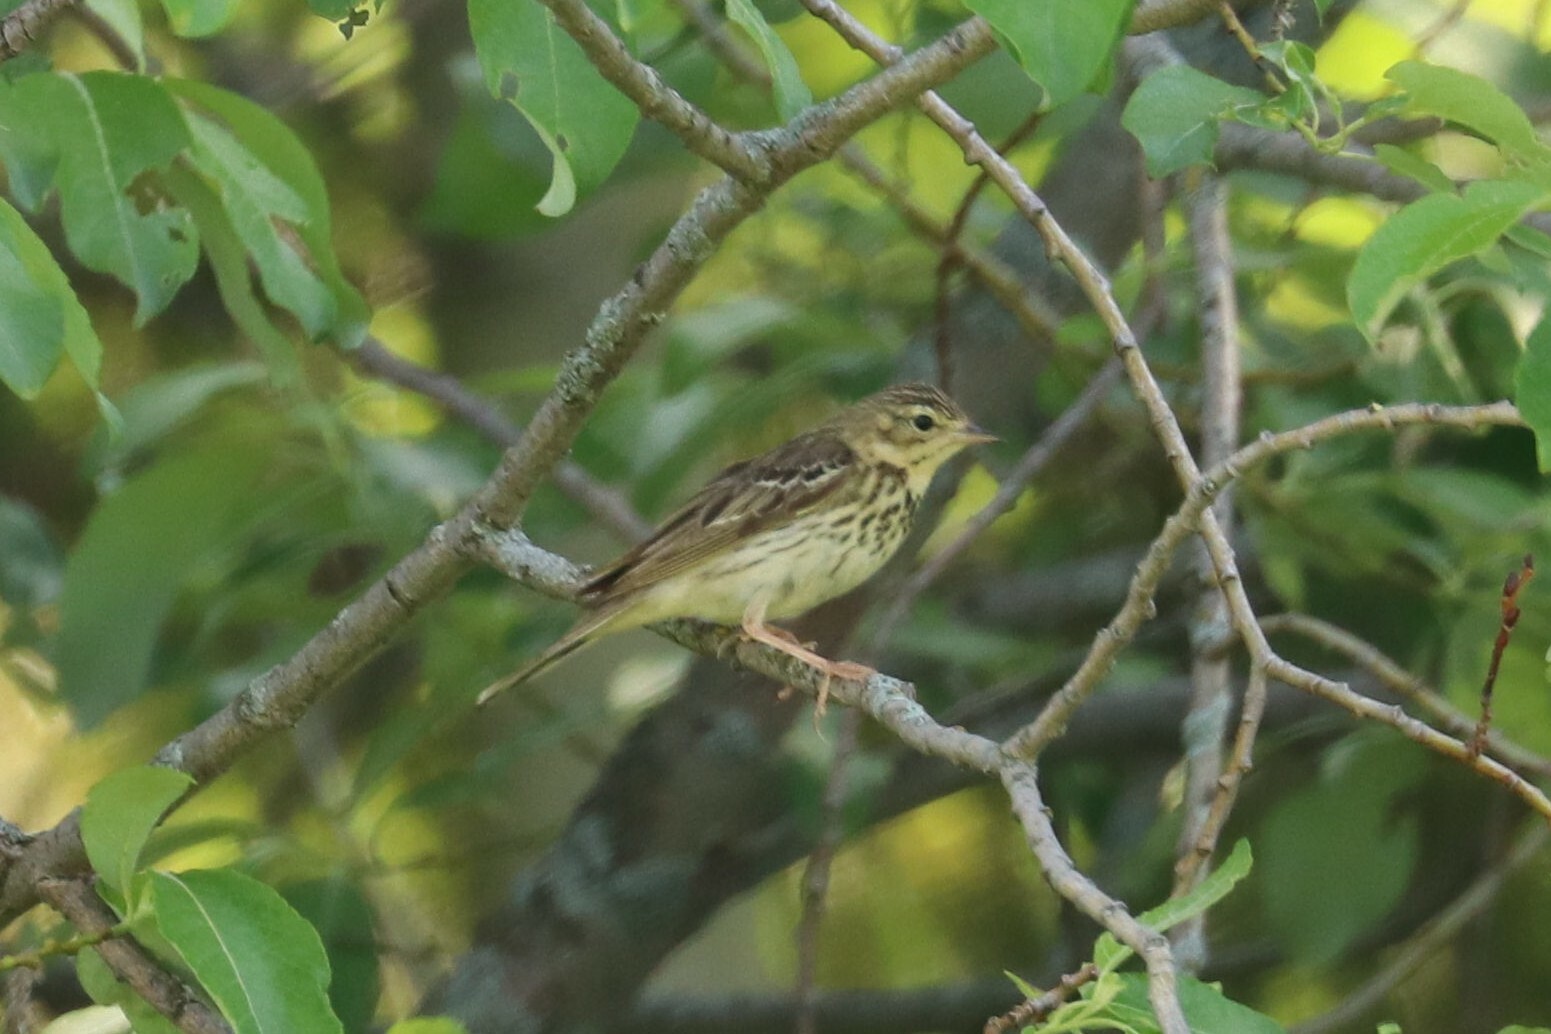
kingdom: Animalia
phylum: Chordata
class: Aves
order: Passeriformes
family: Motacillidae
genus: Anthus
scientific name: Anthus trivialis
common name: Tree pipit
